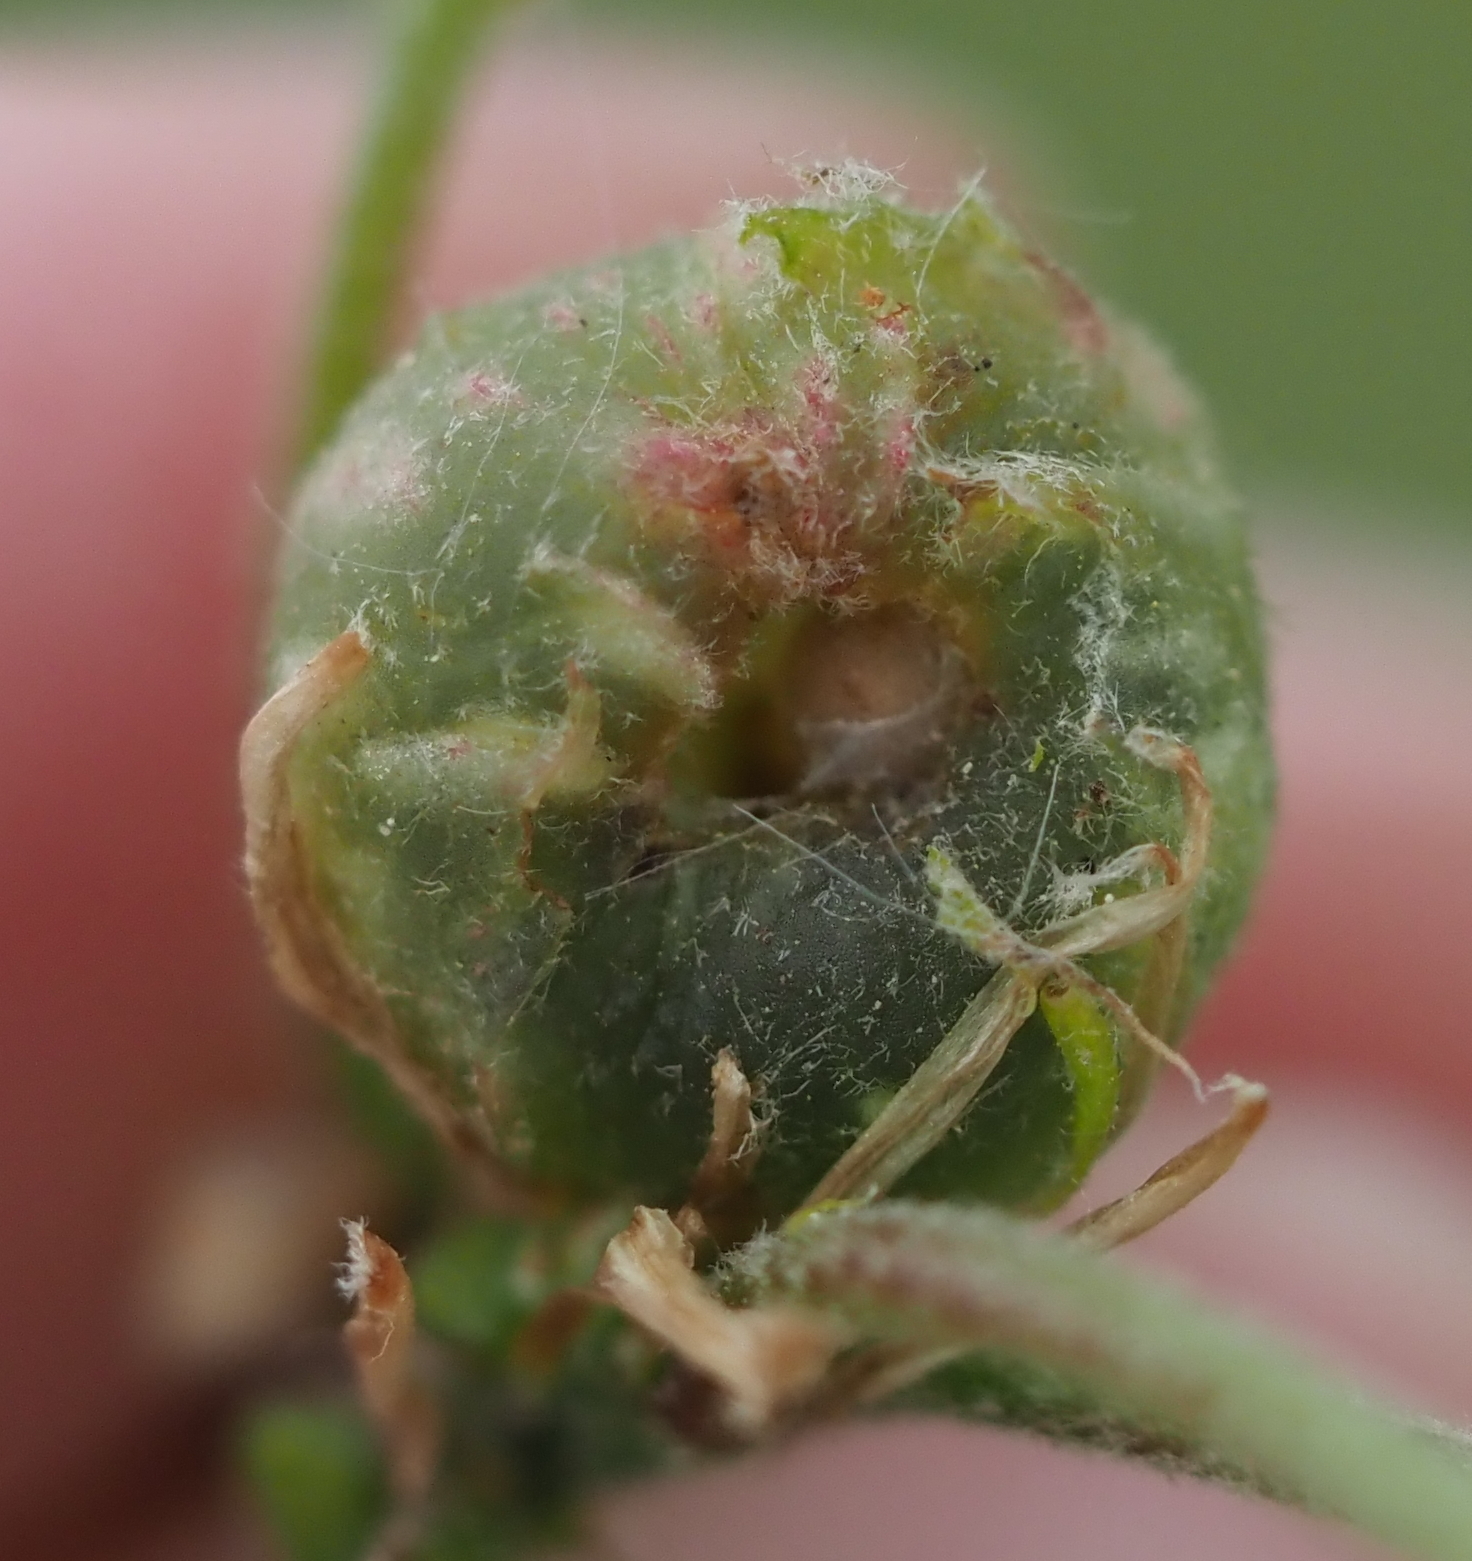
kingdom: Animalia
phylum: Arthropoda
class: Insecta
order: Hymenoptera
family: Cynipidae
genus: Dryocosmus
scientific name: Dryocosmus quercuspalustris
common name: Succulent oak gall wasp
